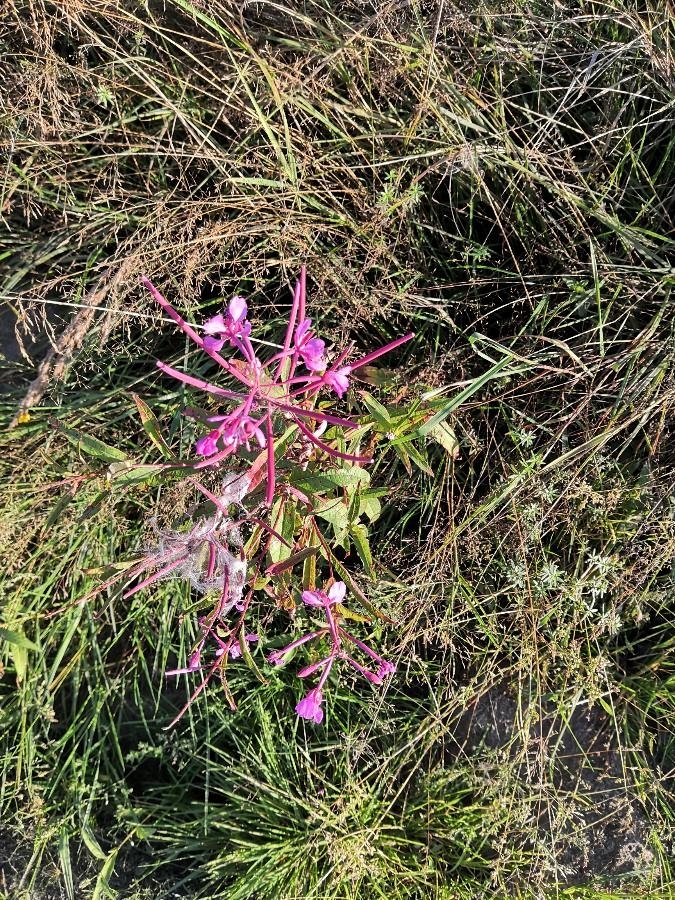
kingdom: Plantae
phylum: Tracheophyta
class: Magnoliopsida
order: Myrtales
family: Onagraceae
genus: Chamaenerion
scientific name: Chamaenerion angustifolium
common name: Fireweed
